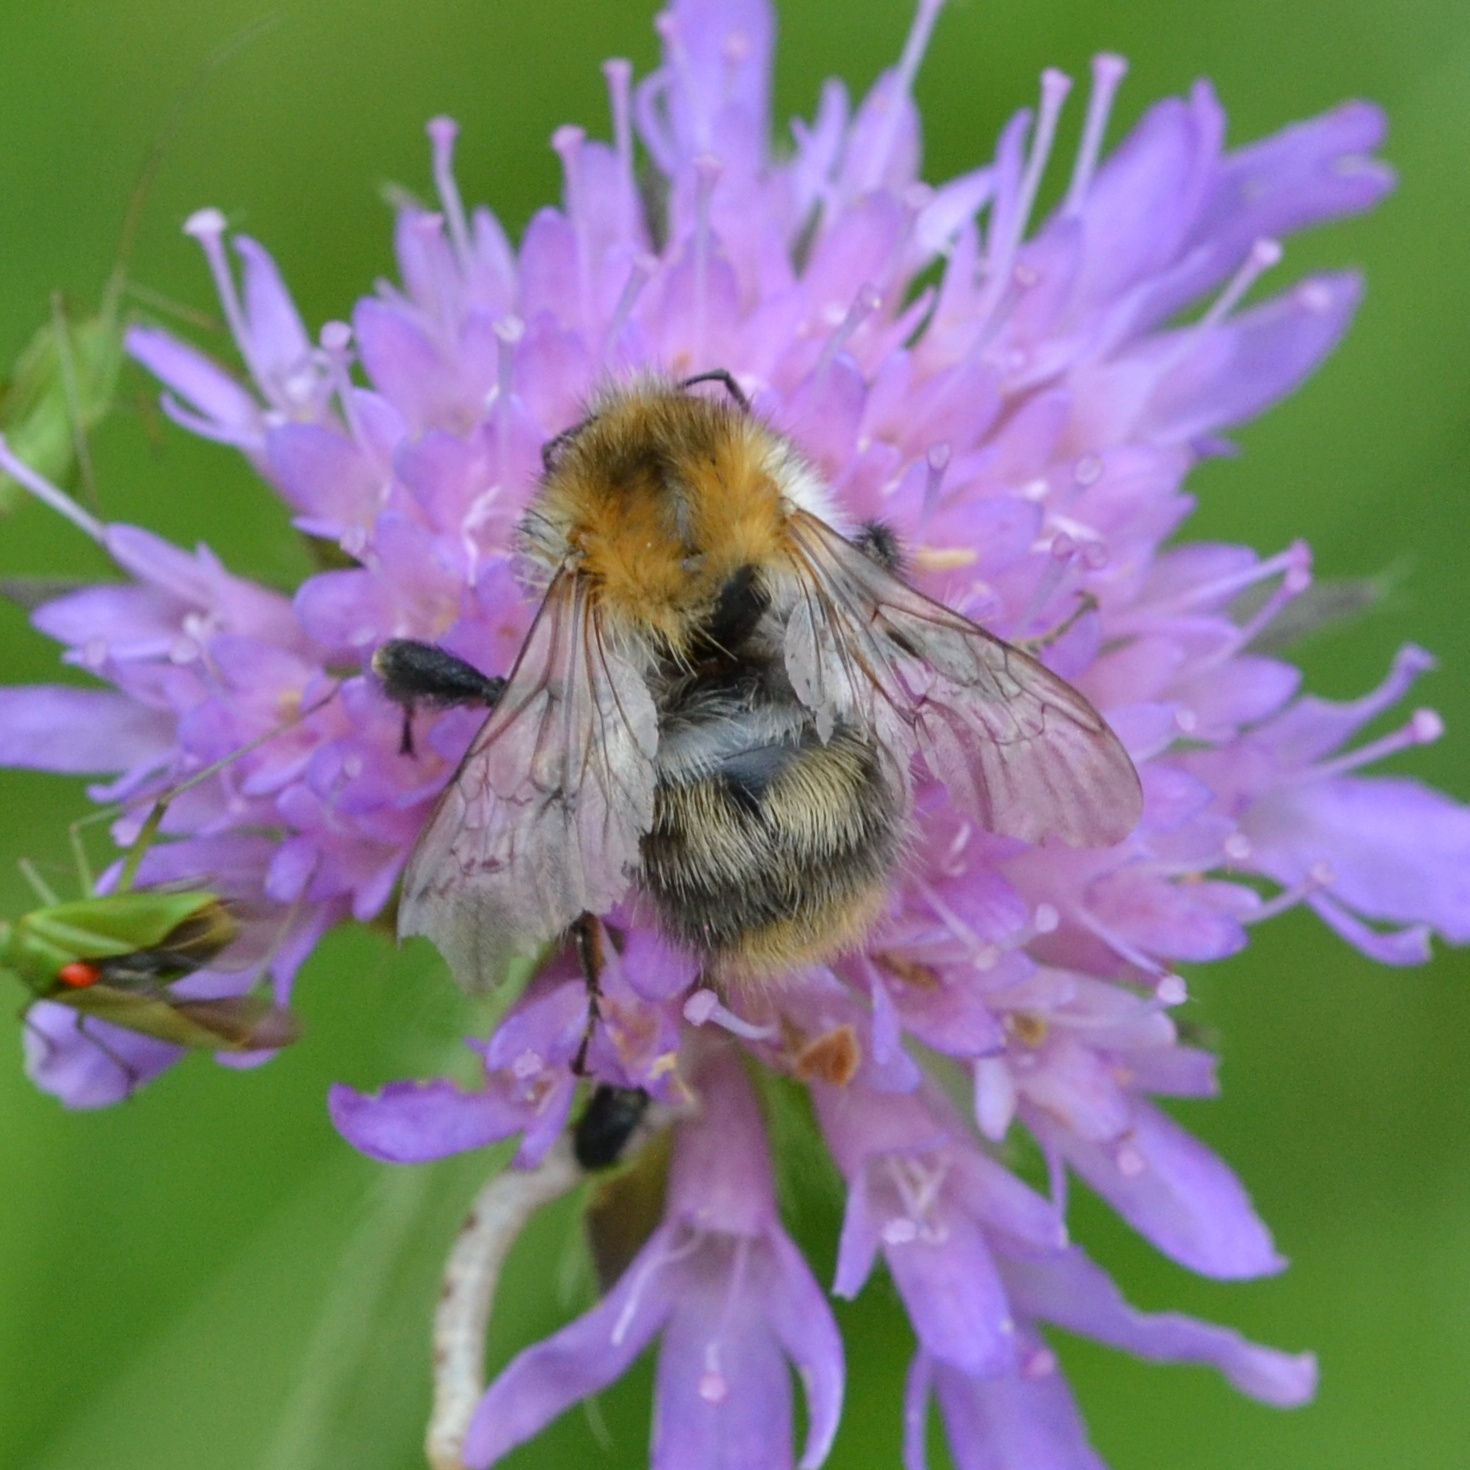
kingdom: Animalia
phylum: Arthropoda
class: Insecta
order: Hymenoptera
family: Apidae
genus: Bombus
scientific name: Bombus pascuorum
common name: Common carder bee
